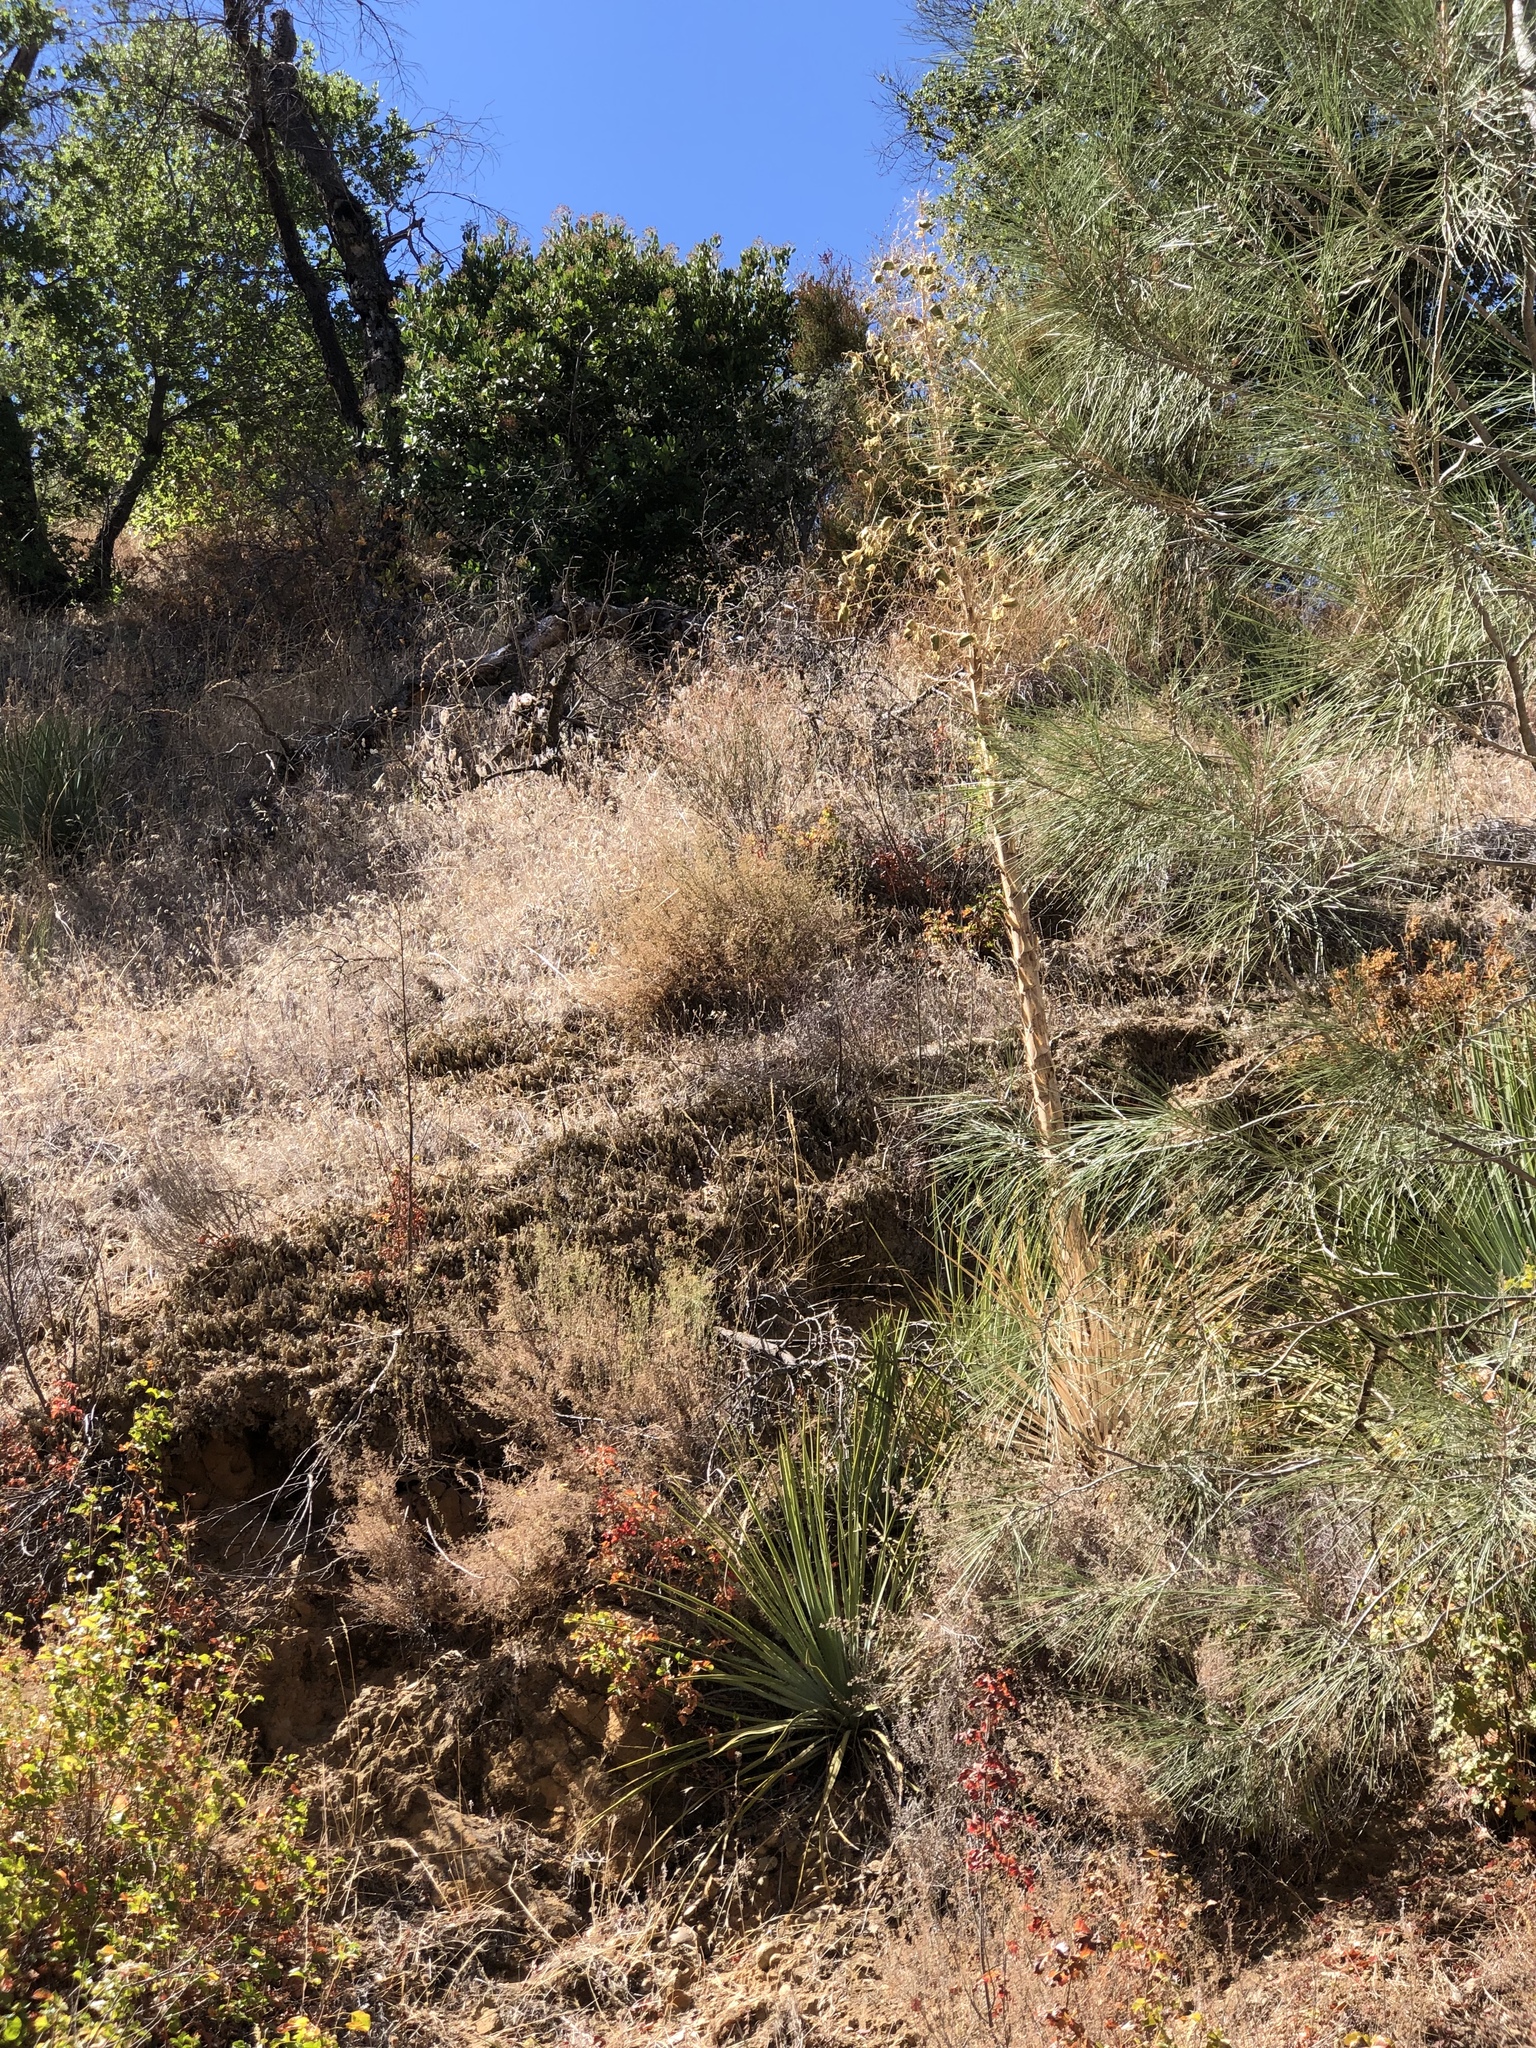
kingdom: Plantae
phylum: Tracheophyta
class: Liliopsida
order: Asparagales
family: Asparagaceae
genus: Hesperoyucca
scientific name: Hesperoyucca whipplei
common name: Our lord's-candle
